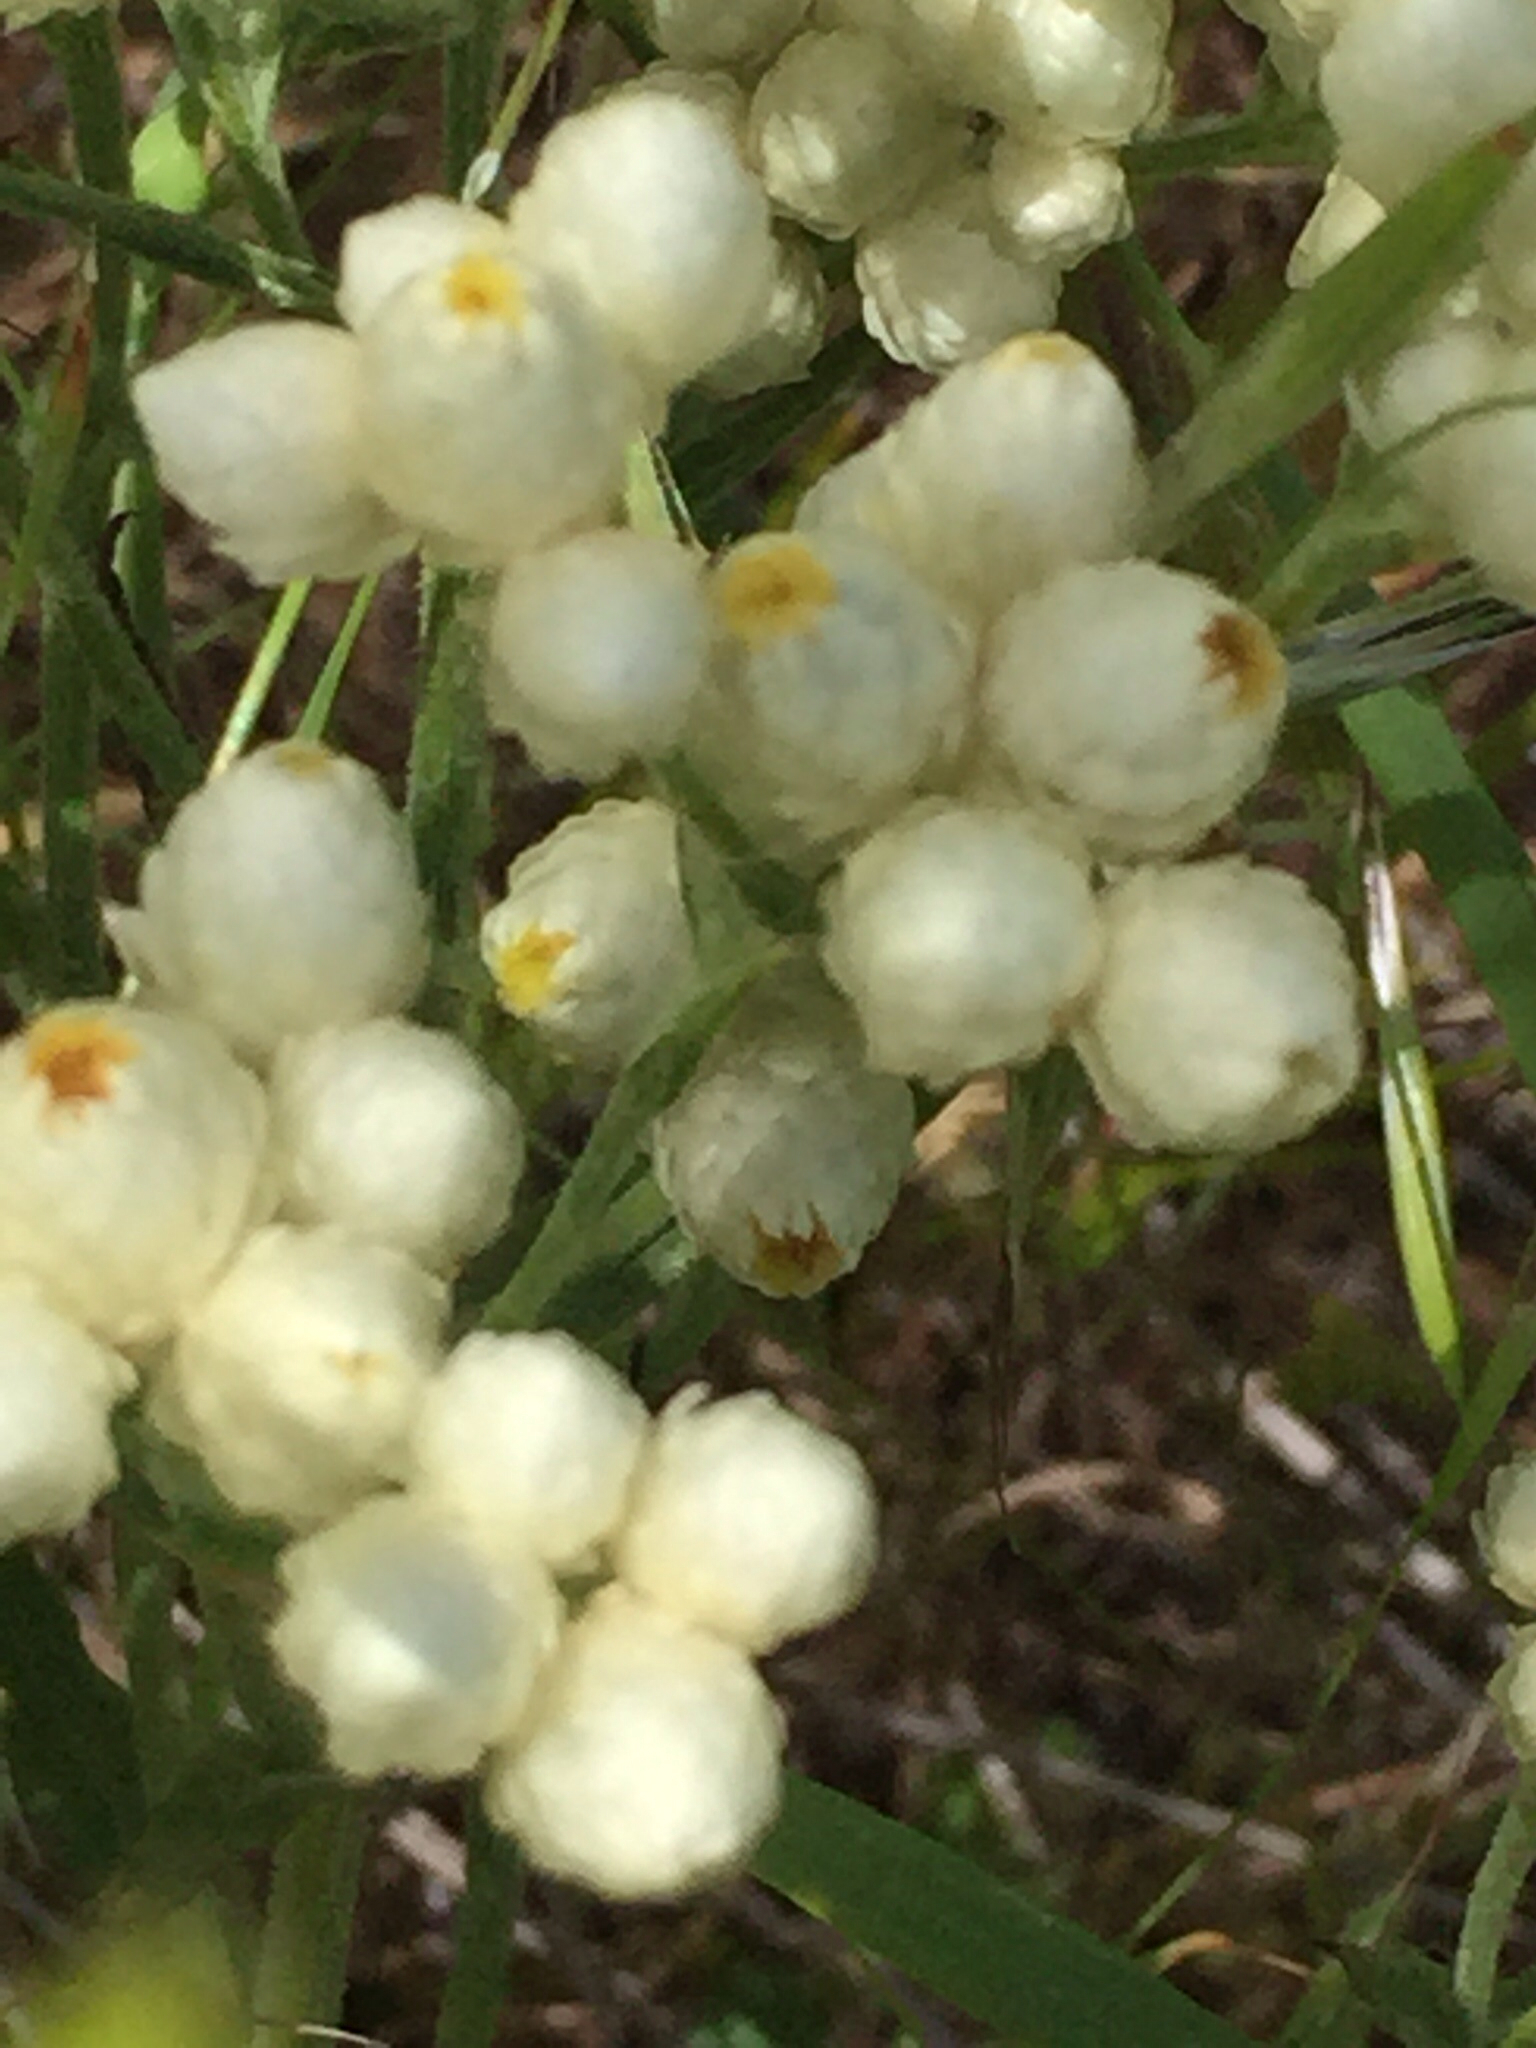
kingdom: Plantae
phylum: Tracheophyta
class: Magnoliopsida
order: Asterales
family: Asteraceae
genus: Pseudognaphalium
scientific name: Pseudognaphalium californicum
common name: California rabbit-tobacco
